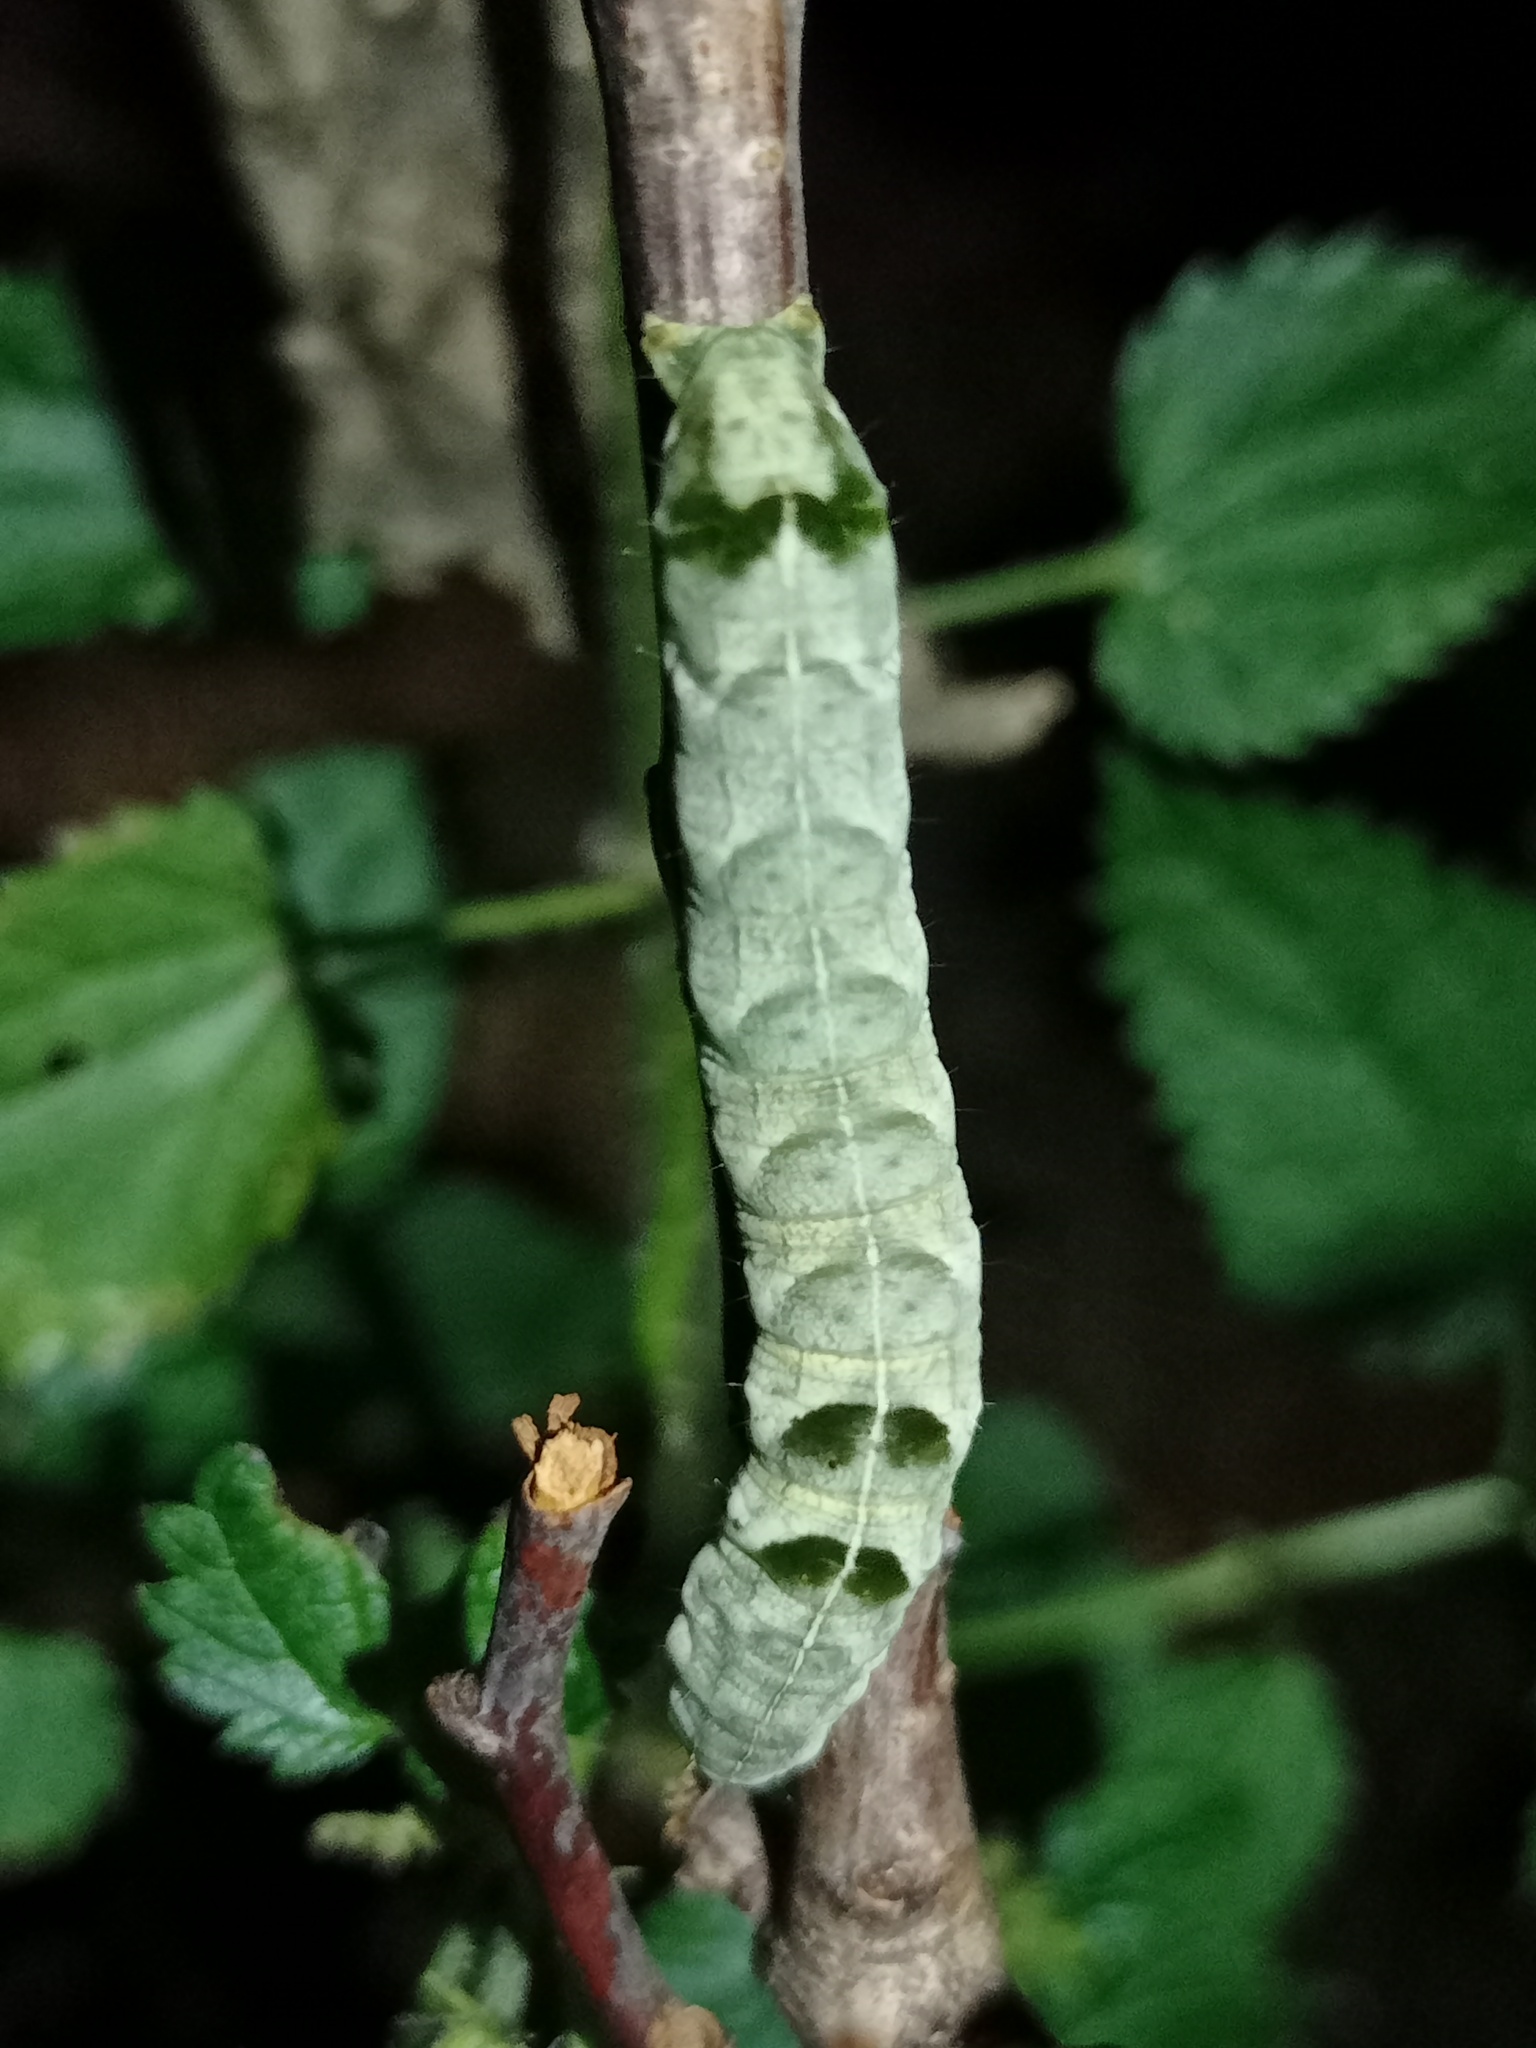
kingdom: Animalia
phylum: Arthropoda
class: Insecta
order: Lepidoptera
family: Noctuidae
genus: Melanchra
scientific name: Melanchra persicariae
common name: Dot moth
